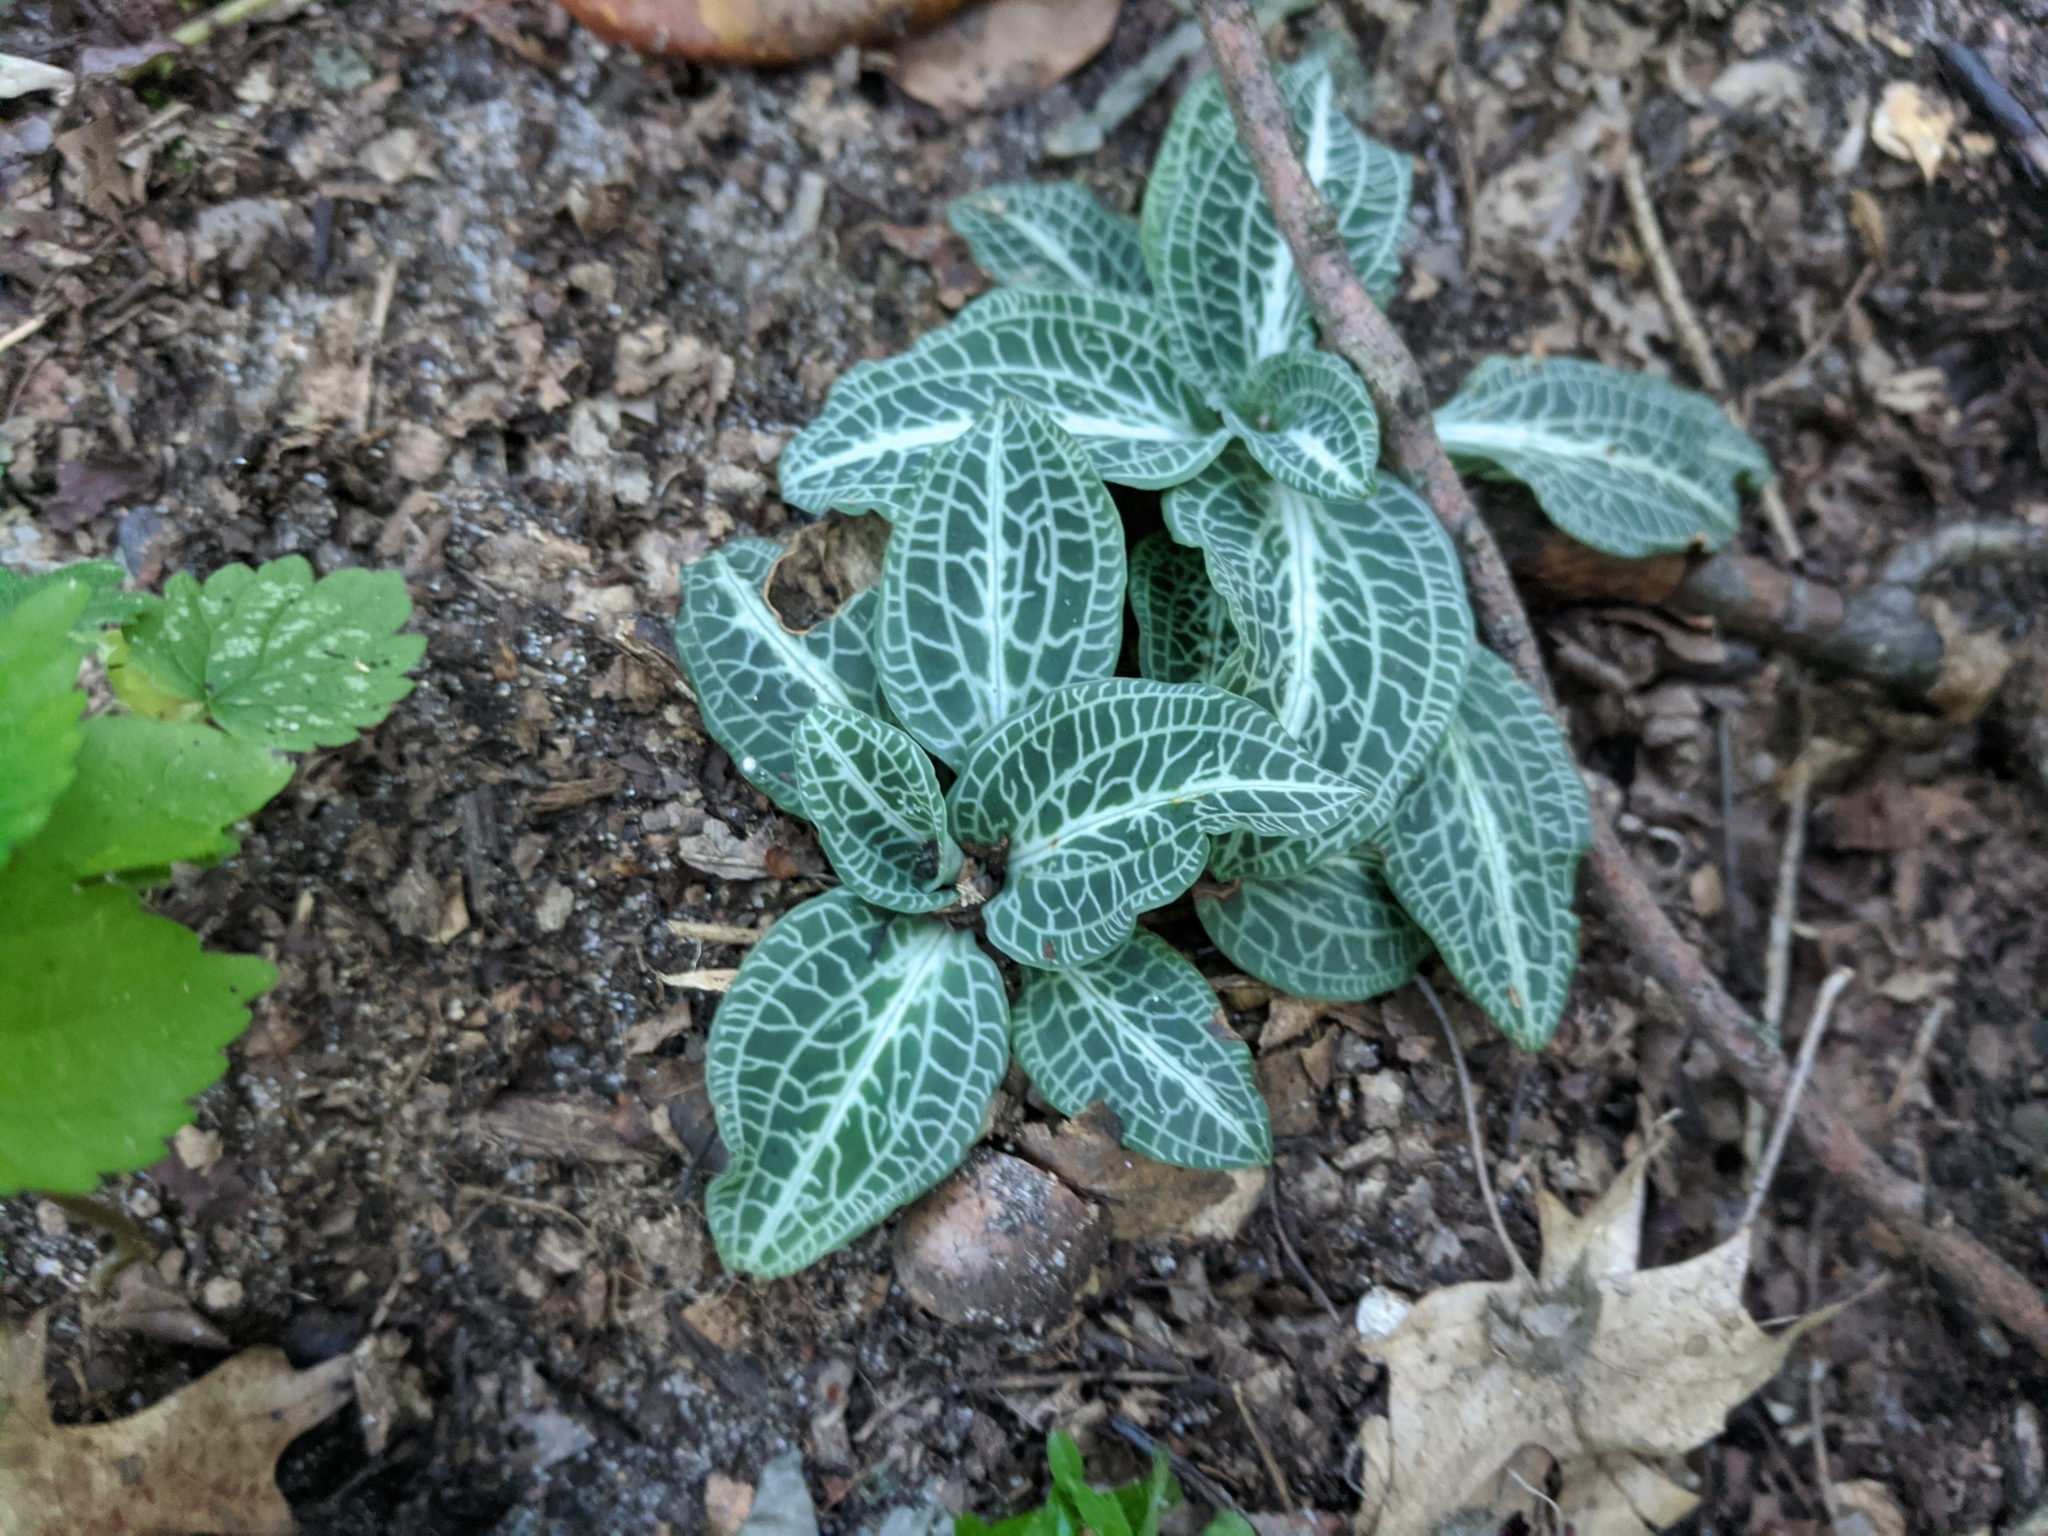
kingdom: Plantae
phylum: Tracheophyta
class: Liliopsida
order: Asparagales
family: Orchidaceae
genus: Goodyera
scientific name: Goodyera pubescens
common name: Downy rattlesnake-plantain
